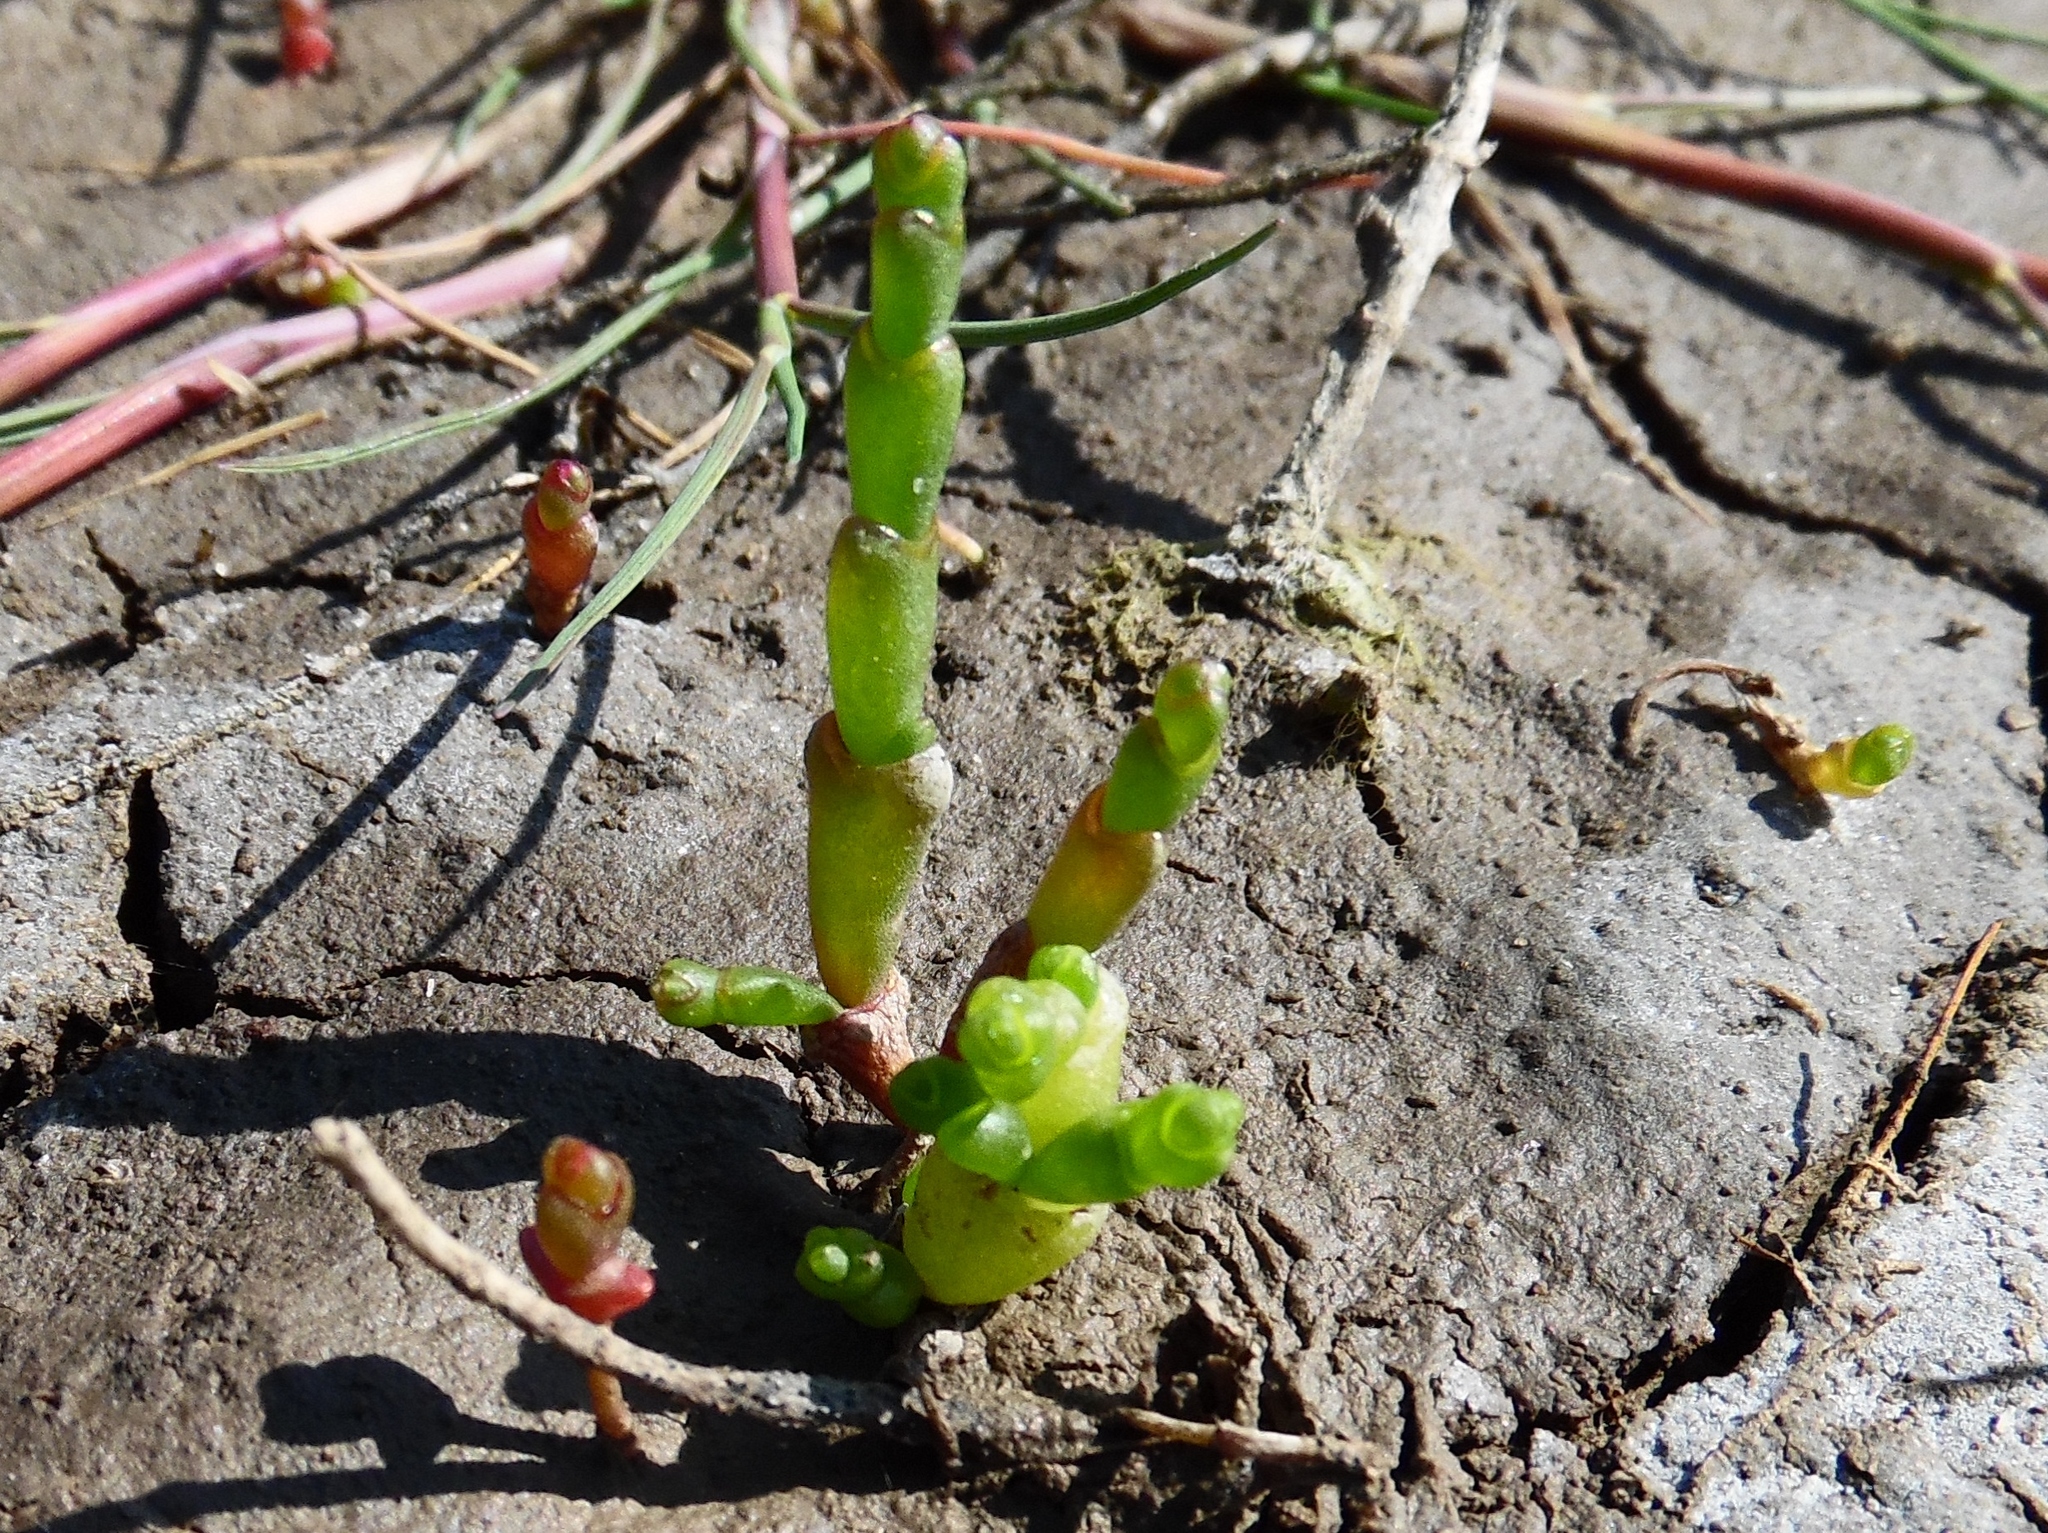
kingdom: Plantae
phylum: Tracheophyta
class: Magnoliopsida
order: Caryophyllales
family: Amaranthaceae
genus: Salicornia
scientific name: Salicornia europaea
